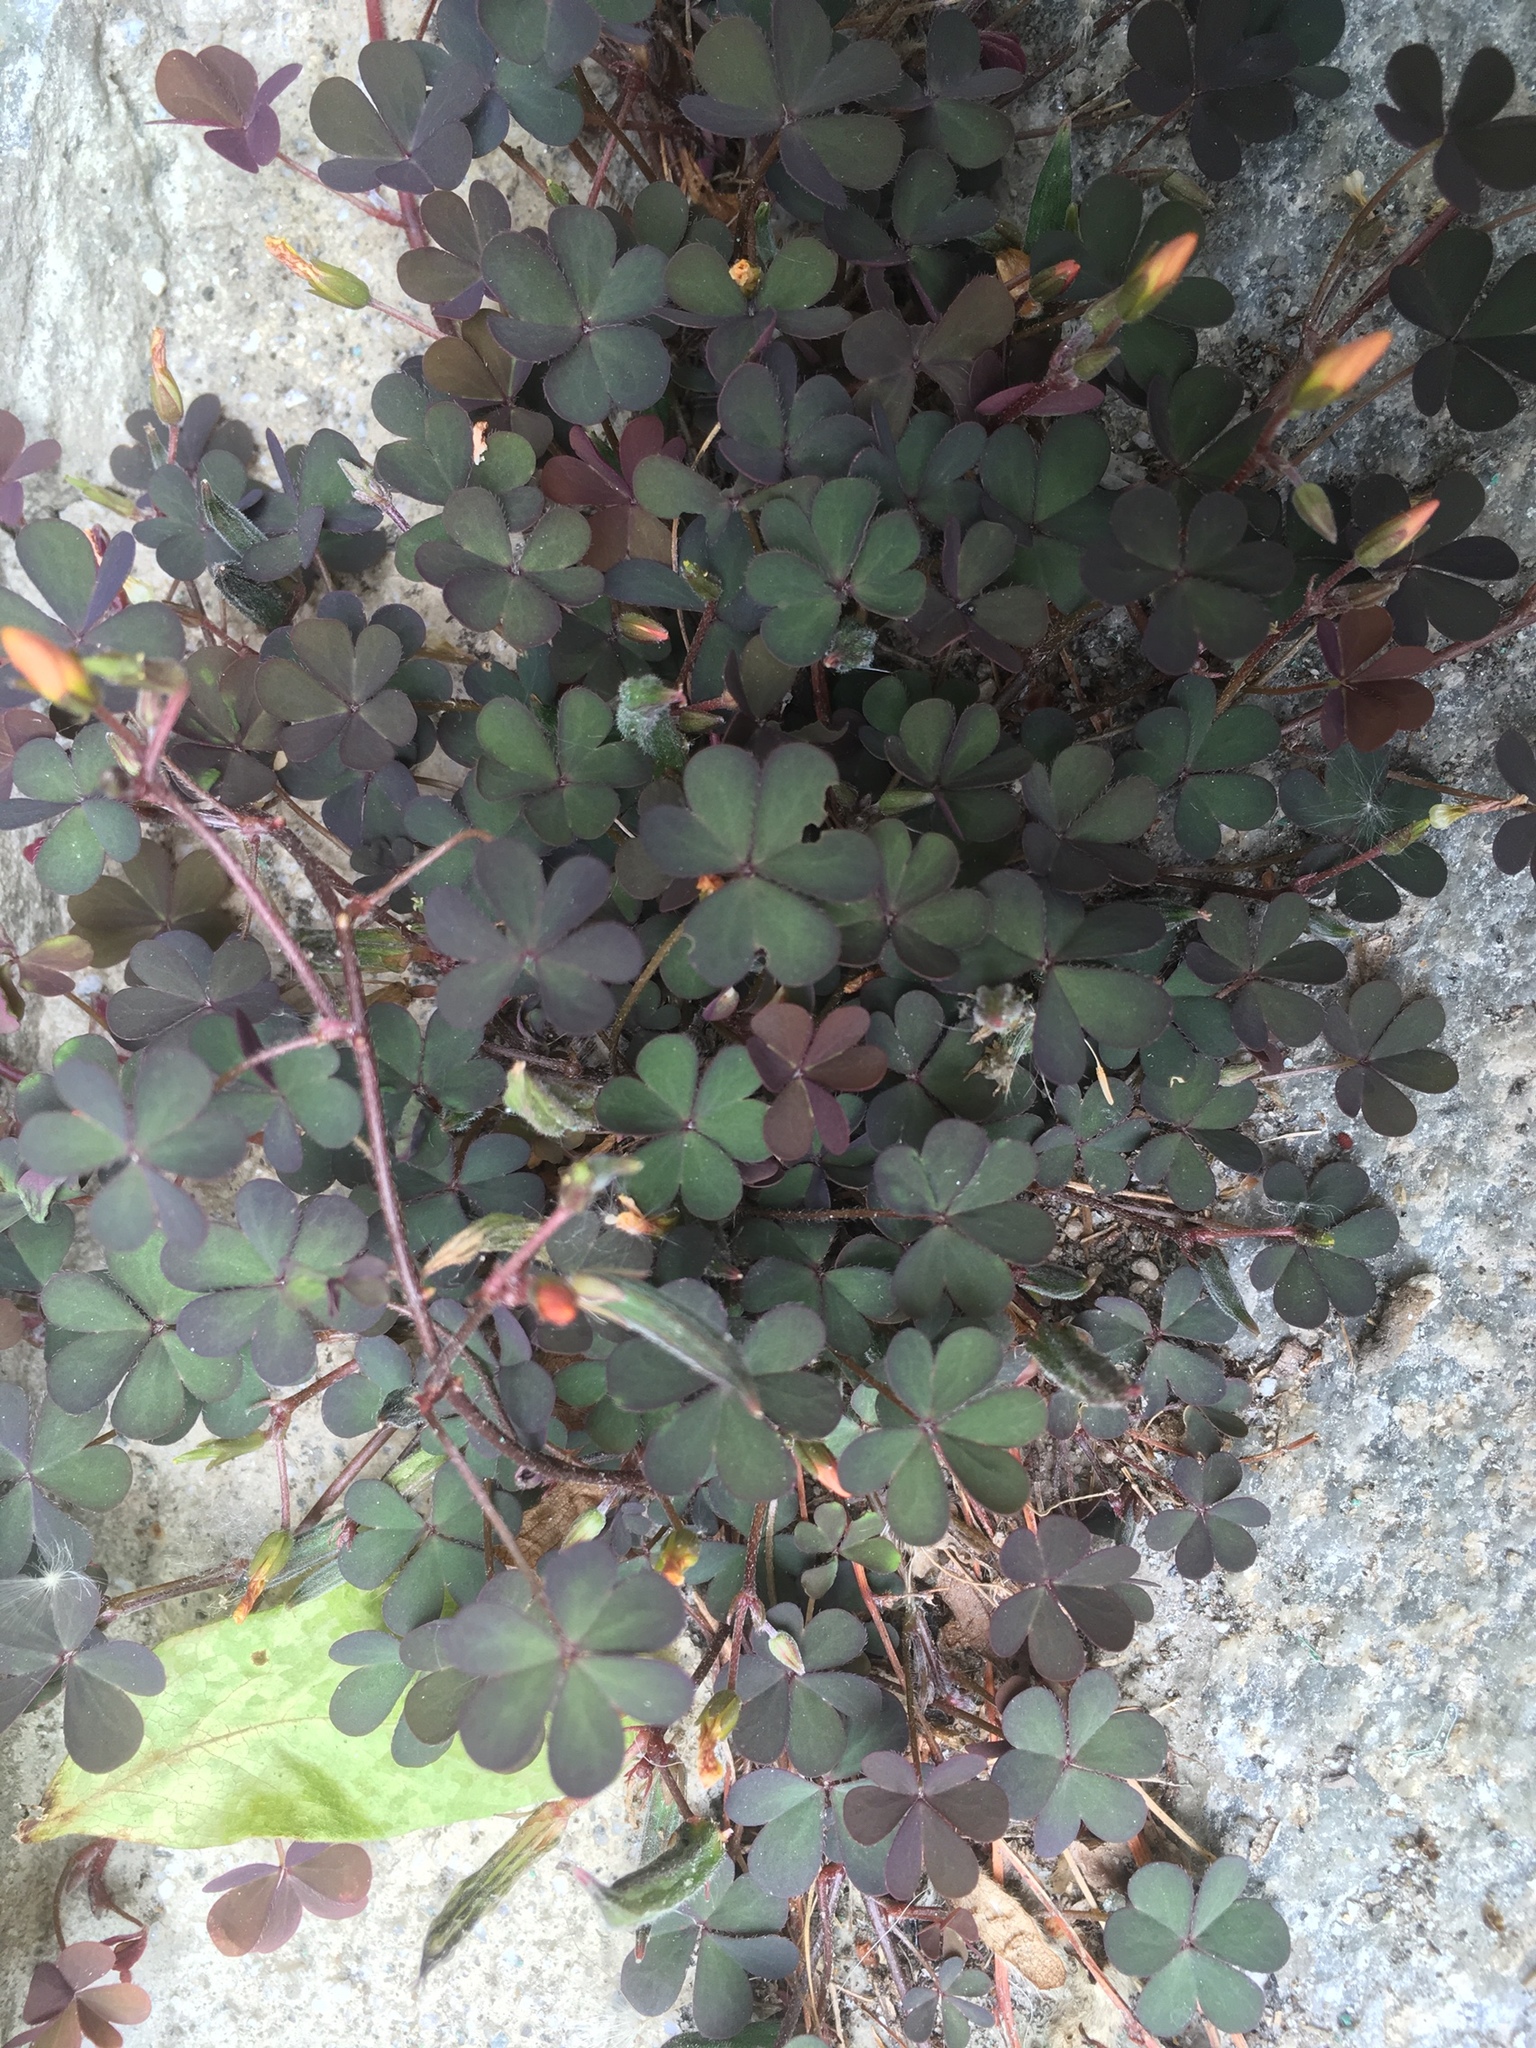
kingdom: Plantae
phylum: Tracheophyta
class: Magnoliopsida
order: Oxalidales
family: Oxalidaceae
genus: Oxalis
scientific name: Oxalis corniculata
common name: Procumbent yellow-sorrel
